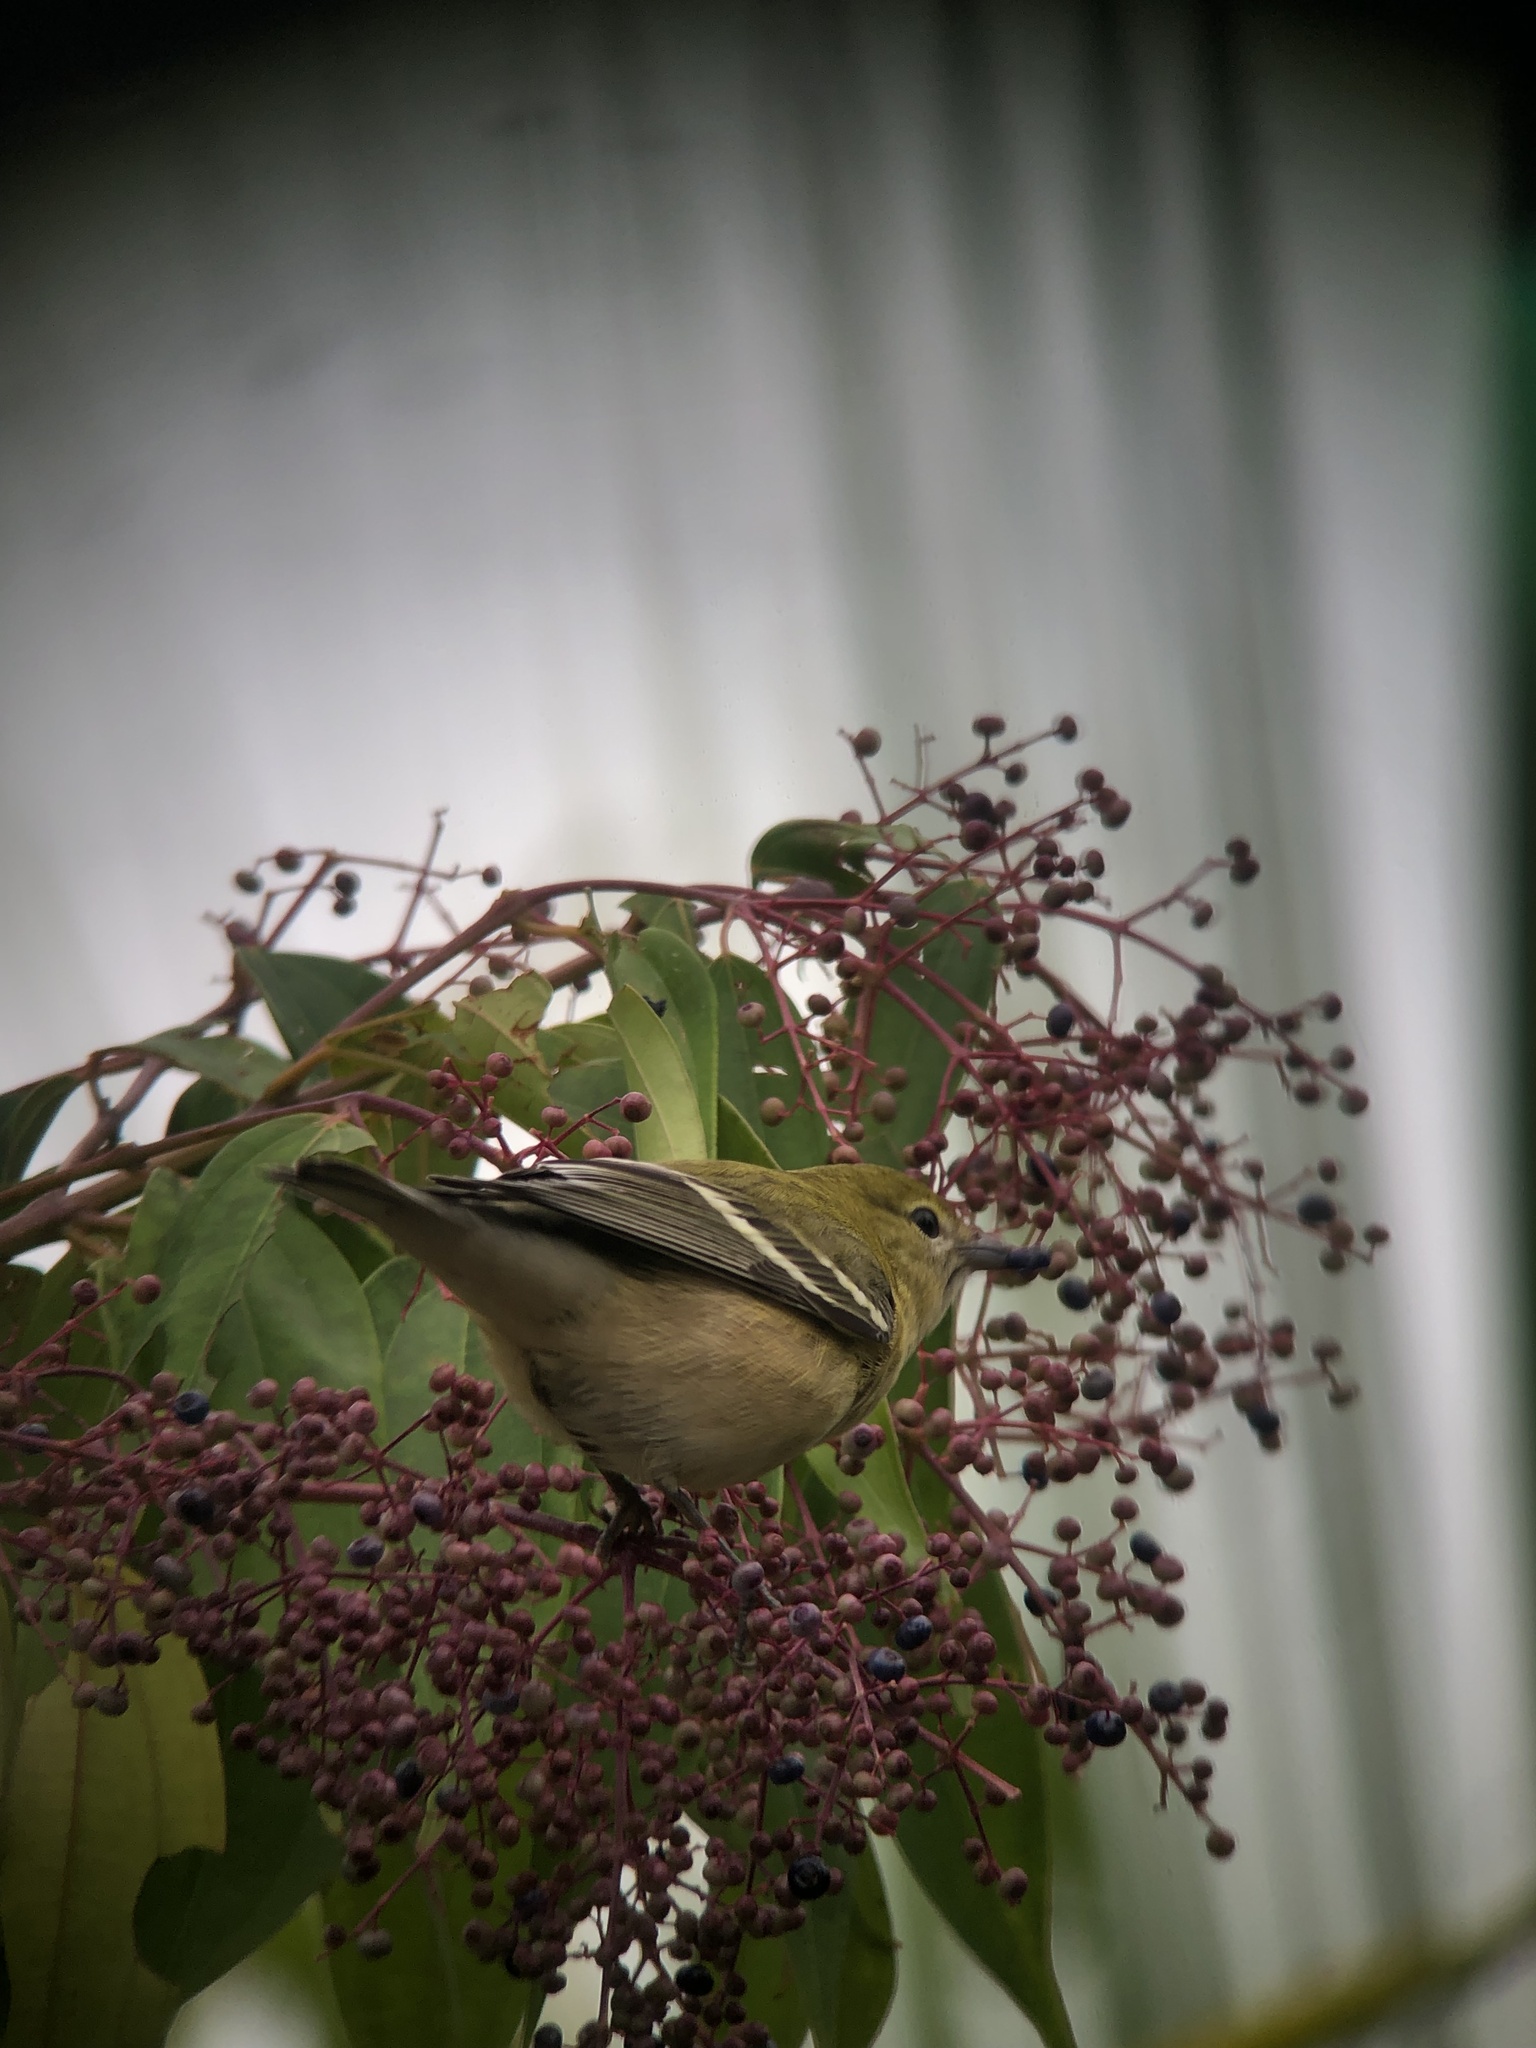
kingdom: Animalia
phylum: Chordata
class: Aves
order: Passeriformes
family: Parulidae
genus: Setophaga
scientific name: Setophaga castanea
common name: Bay-breasted warbler
